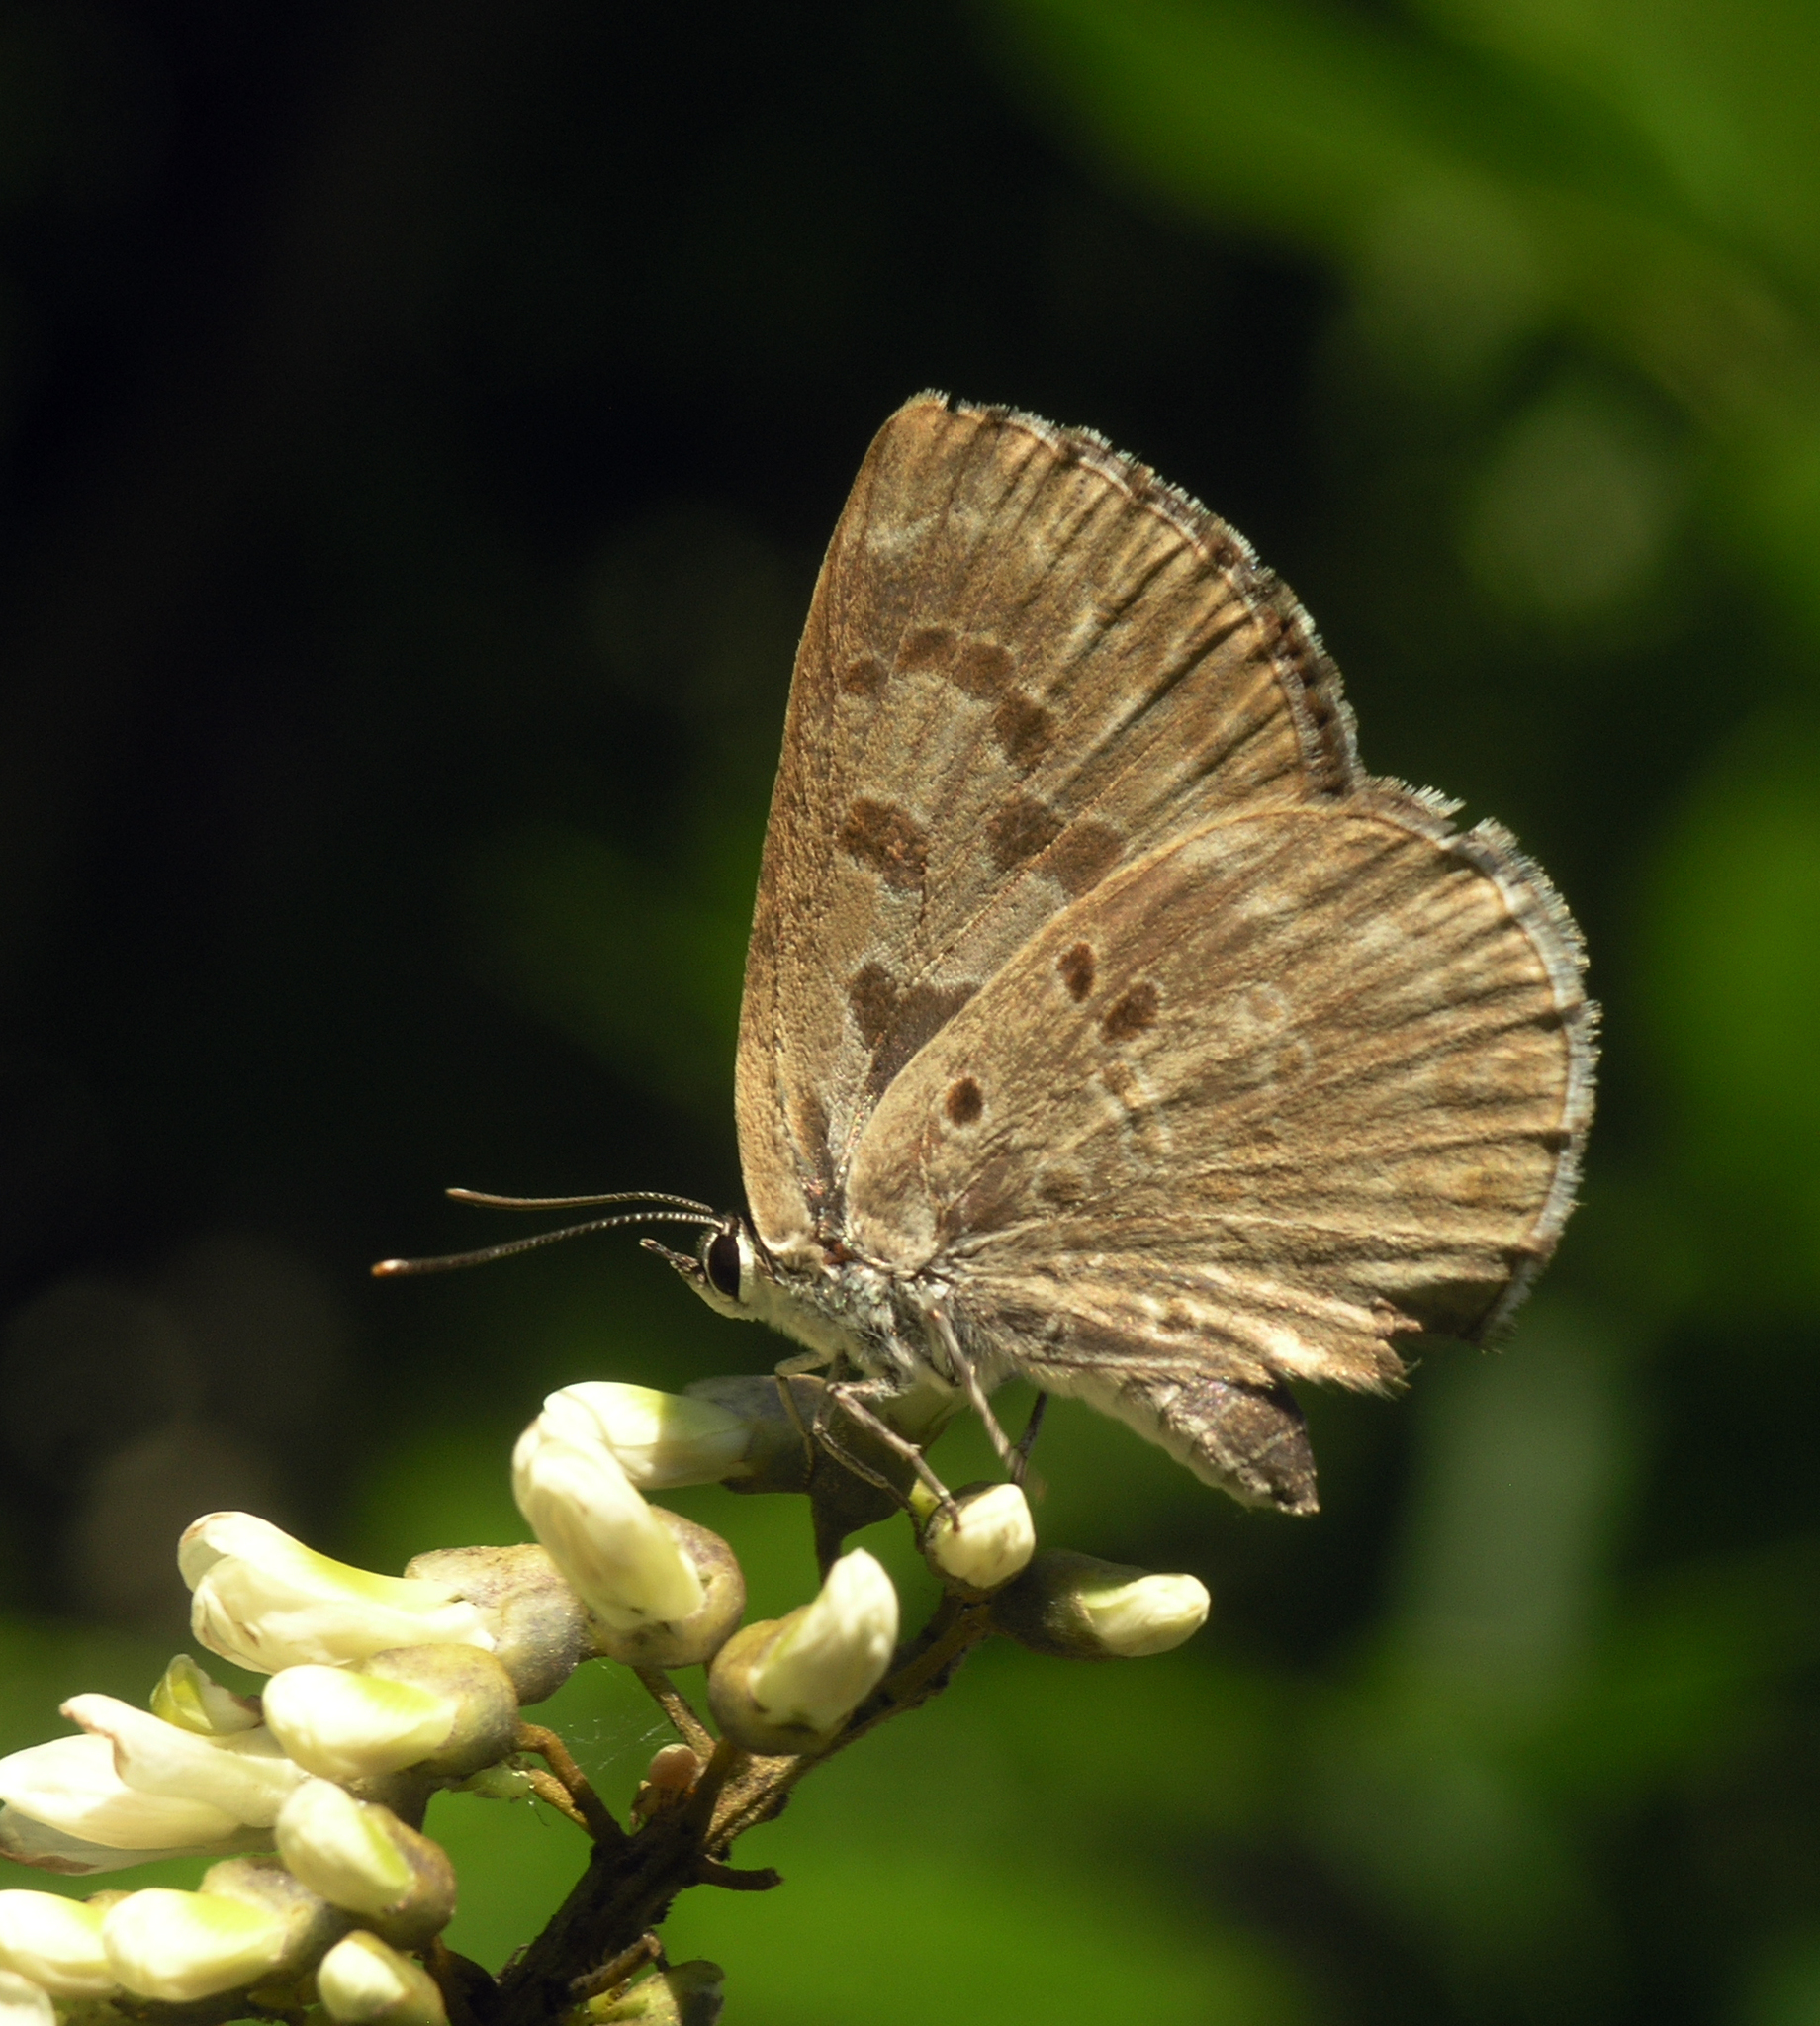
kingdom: Plantae
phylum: Tracheophyta
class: Magnoliopsida
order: Fabales
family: Fabaceae
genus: Maackia
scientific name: Maackia amurensis
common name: Amur maackia
